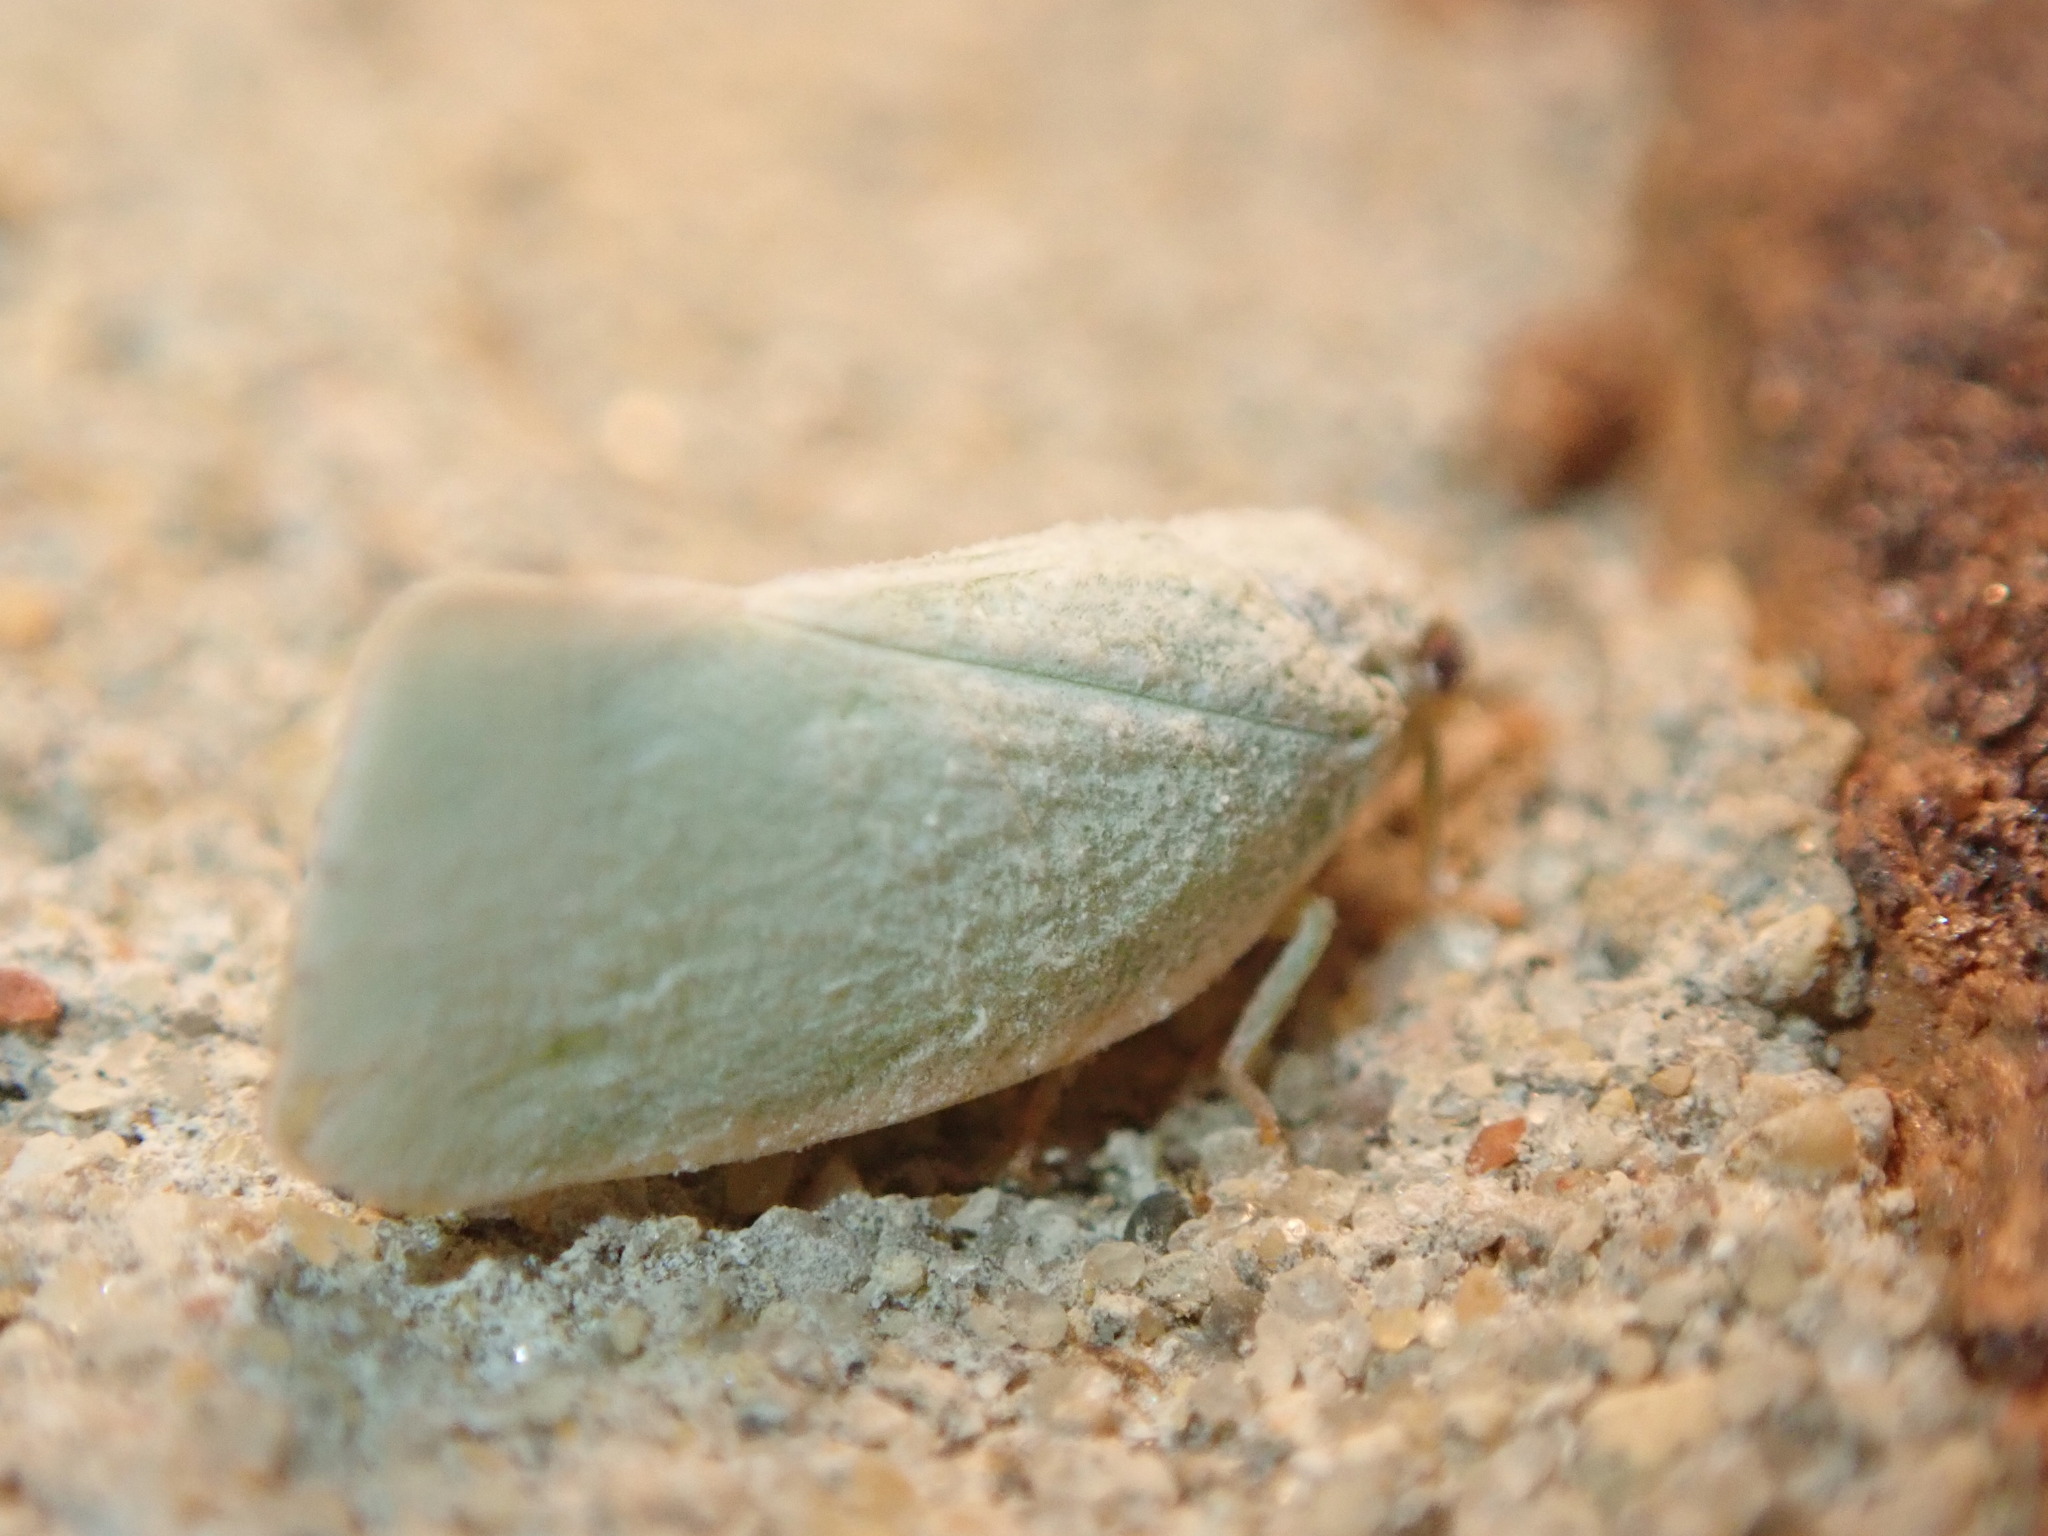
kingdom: Animalia
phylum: Arthropoda
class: Insecta
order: Hemiptera
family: Flatidae
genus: Flatormenis
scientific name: Flatormenis proxima
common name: Northern flatid planthopper
